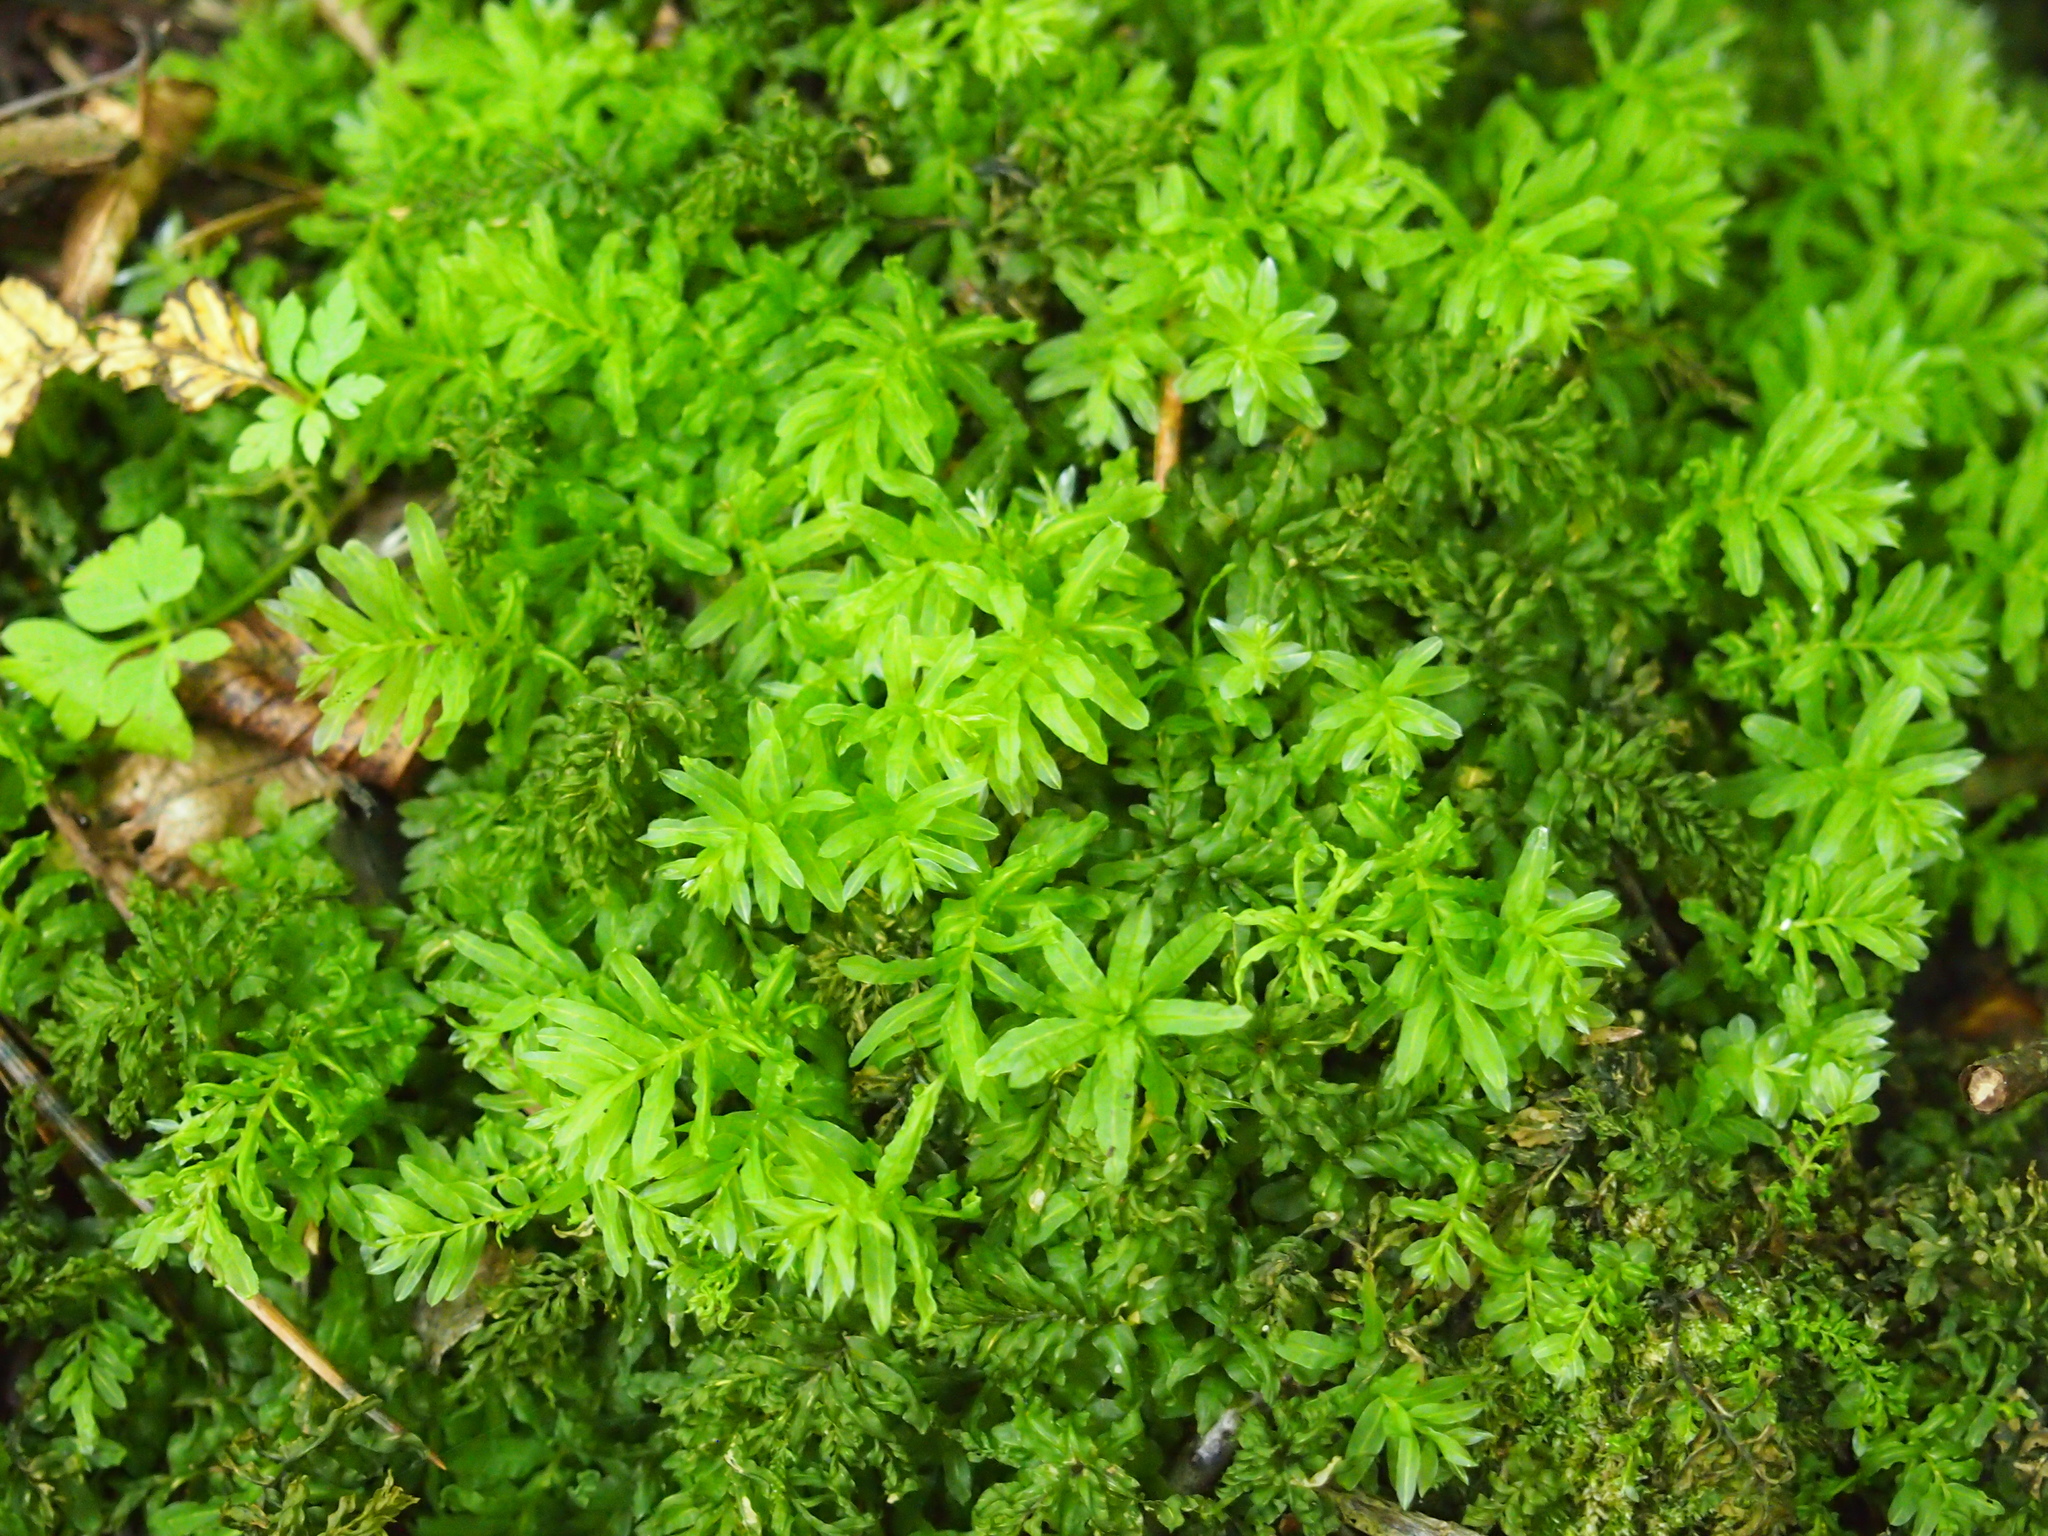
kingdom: Plantae
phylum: Bryophyta
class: Bryopsida
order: Bryales
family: Mniaceae
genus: Plagiomnium
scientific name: Plagiomnium undulatum
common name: Hart's-tongue thyme-moss
